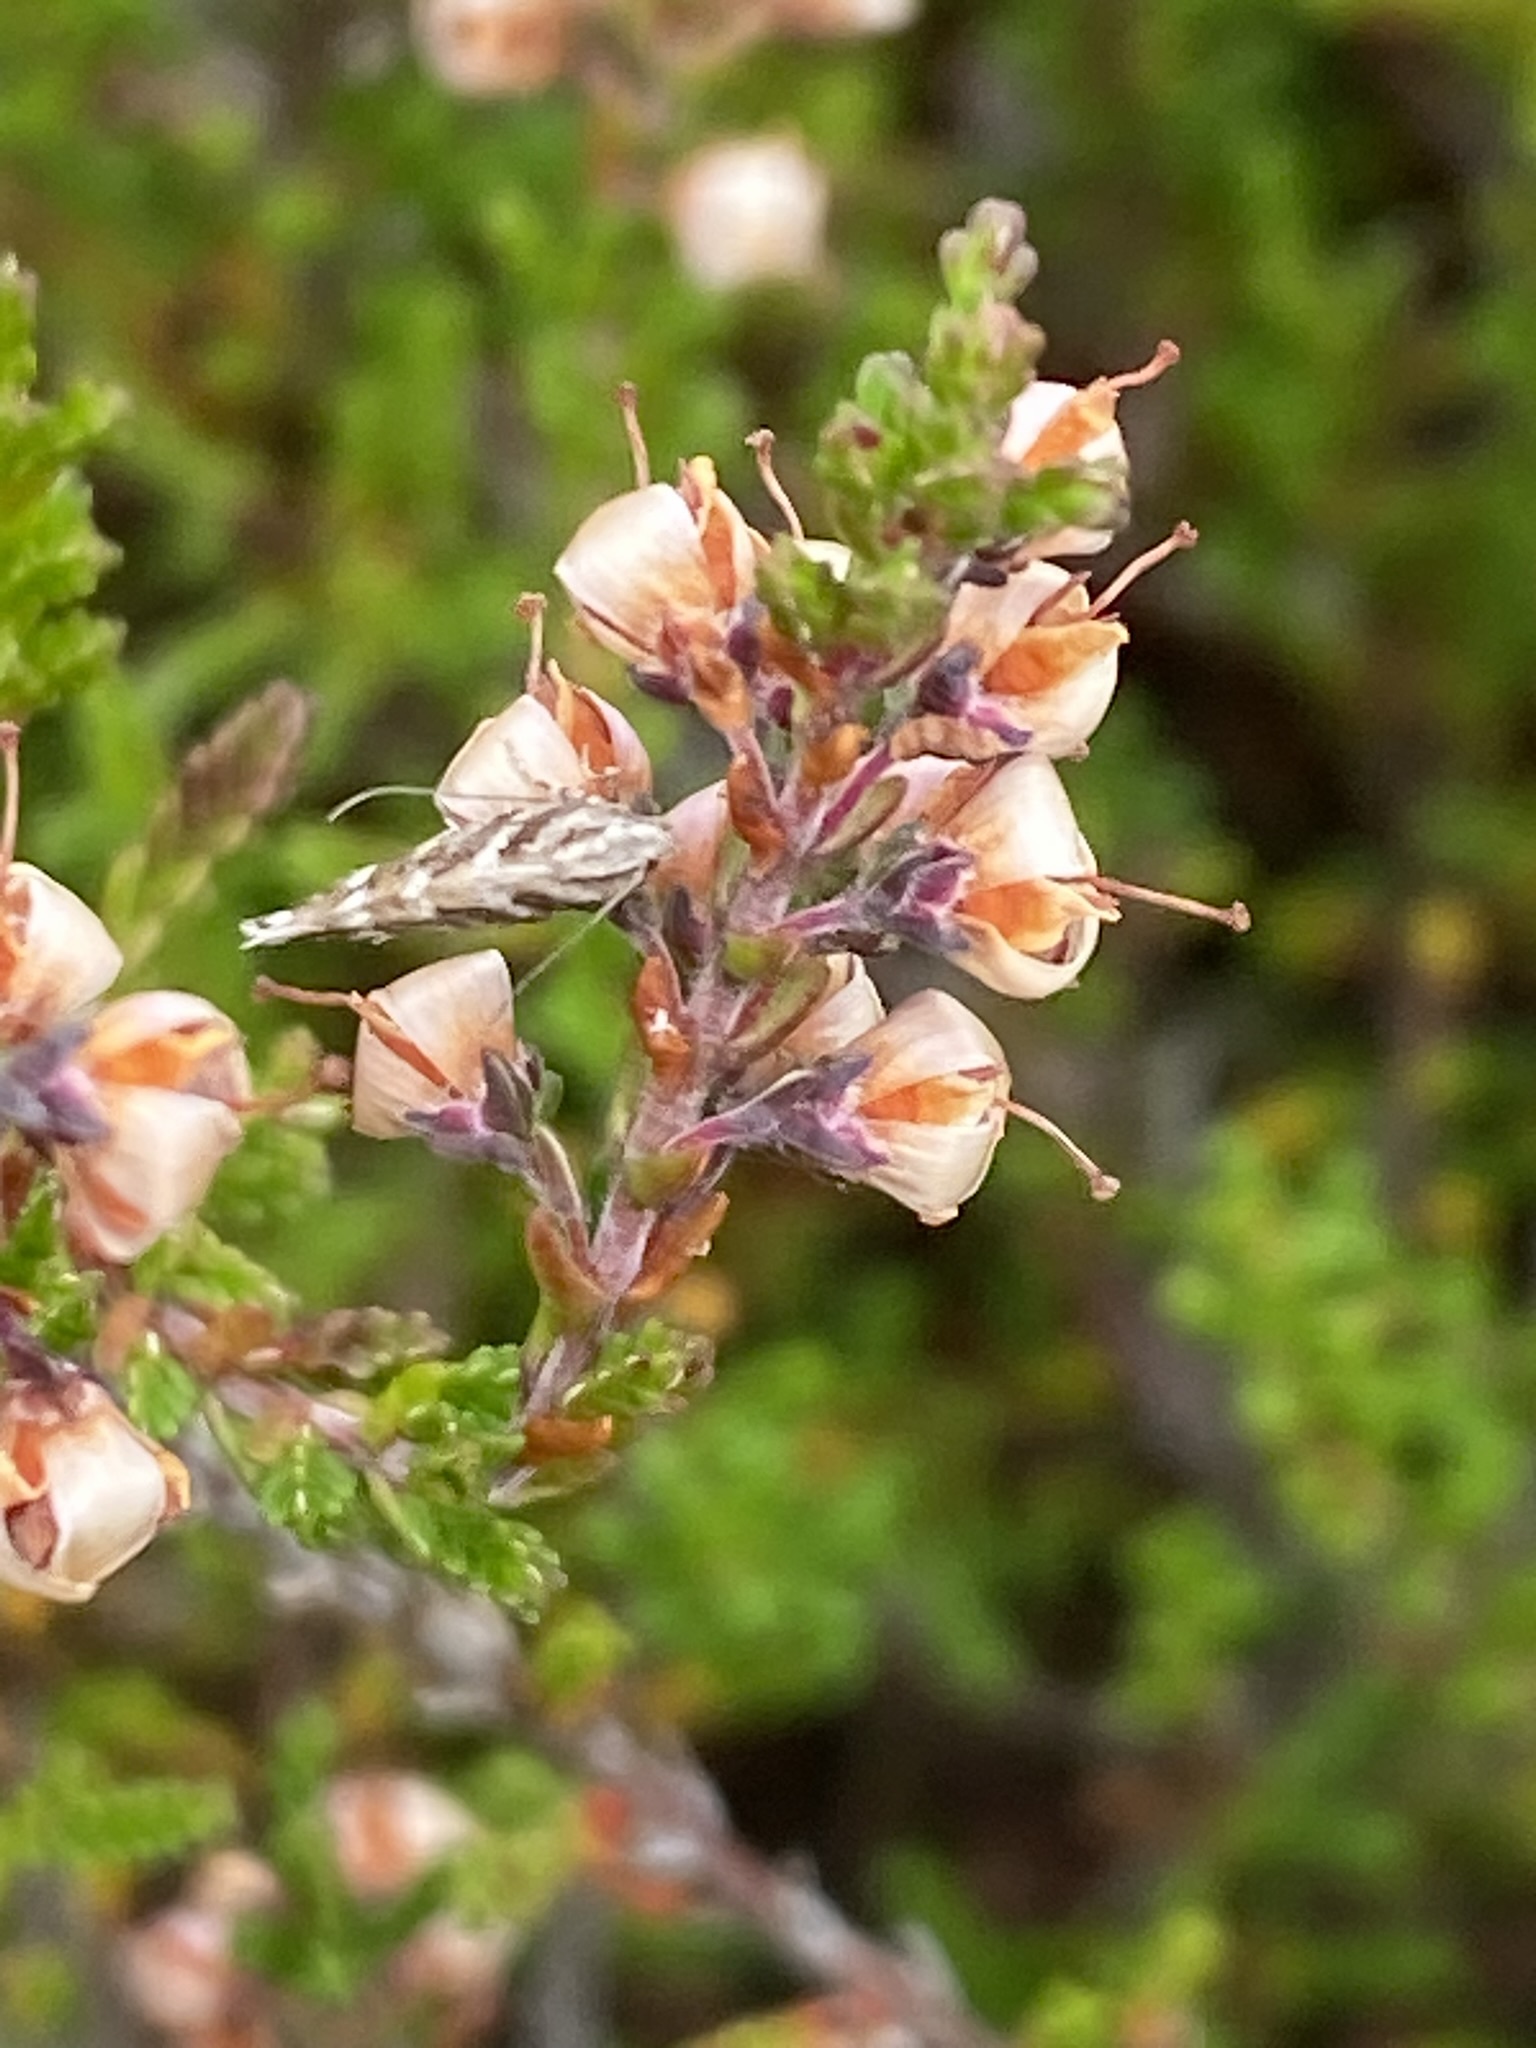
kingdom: Animalia
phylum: Arthropoda
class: Insecta
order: Lepidoptera
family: Gelechiidae
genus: Aristotelia
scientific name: Aristotelia ericinella
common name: Heather neb
